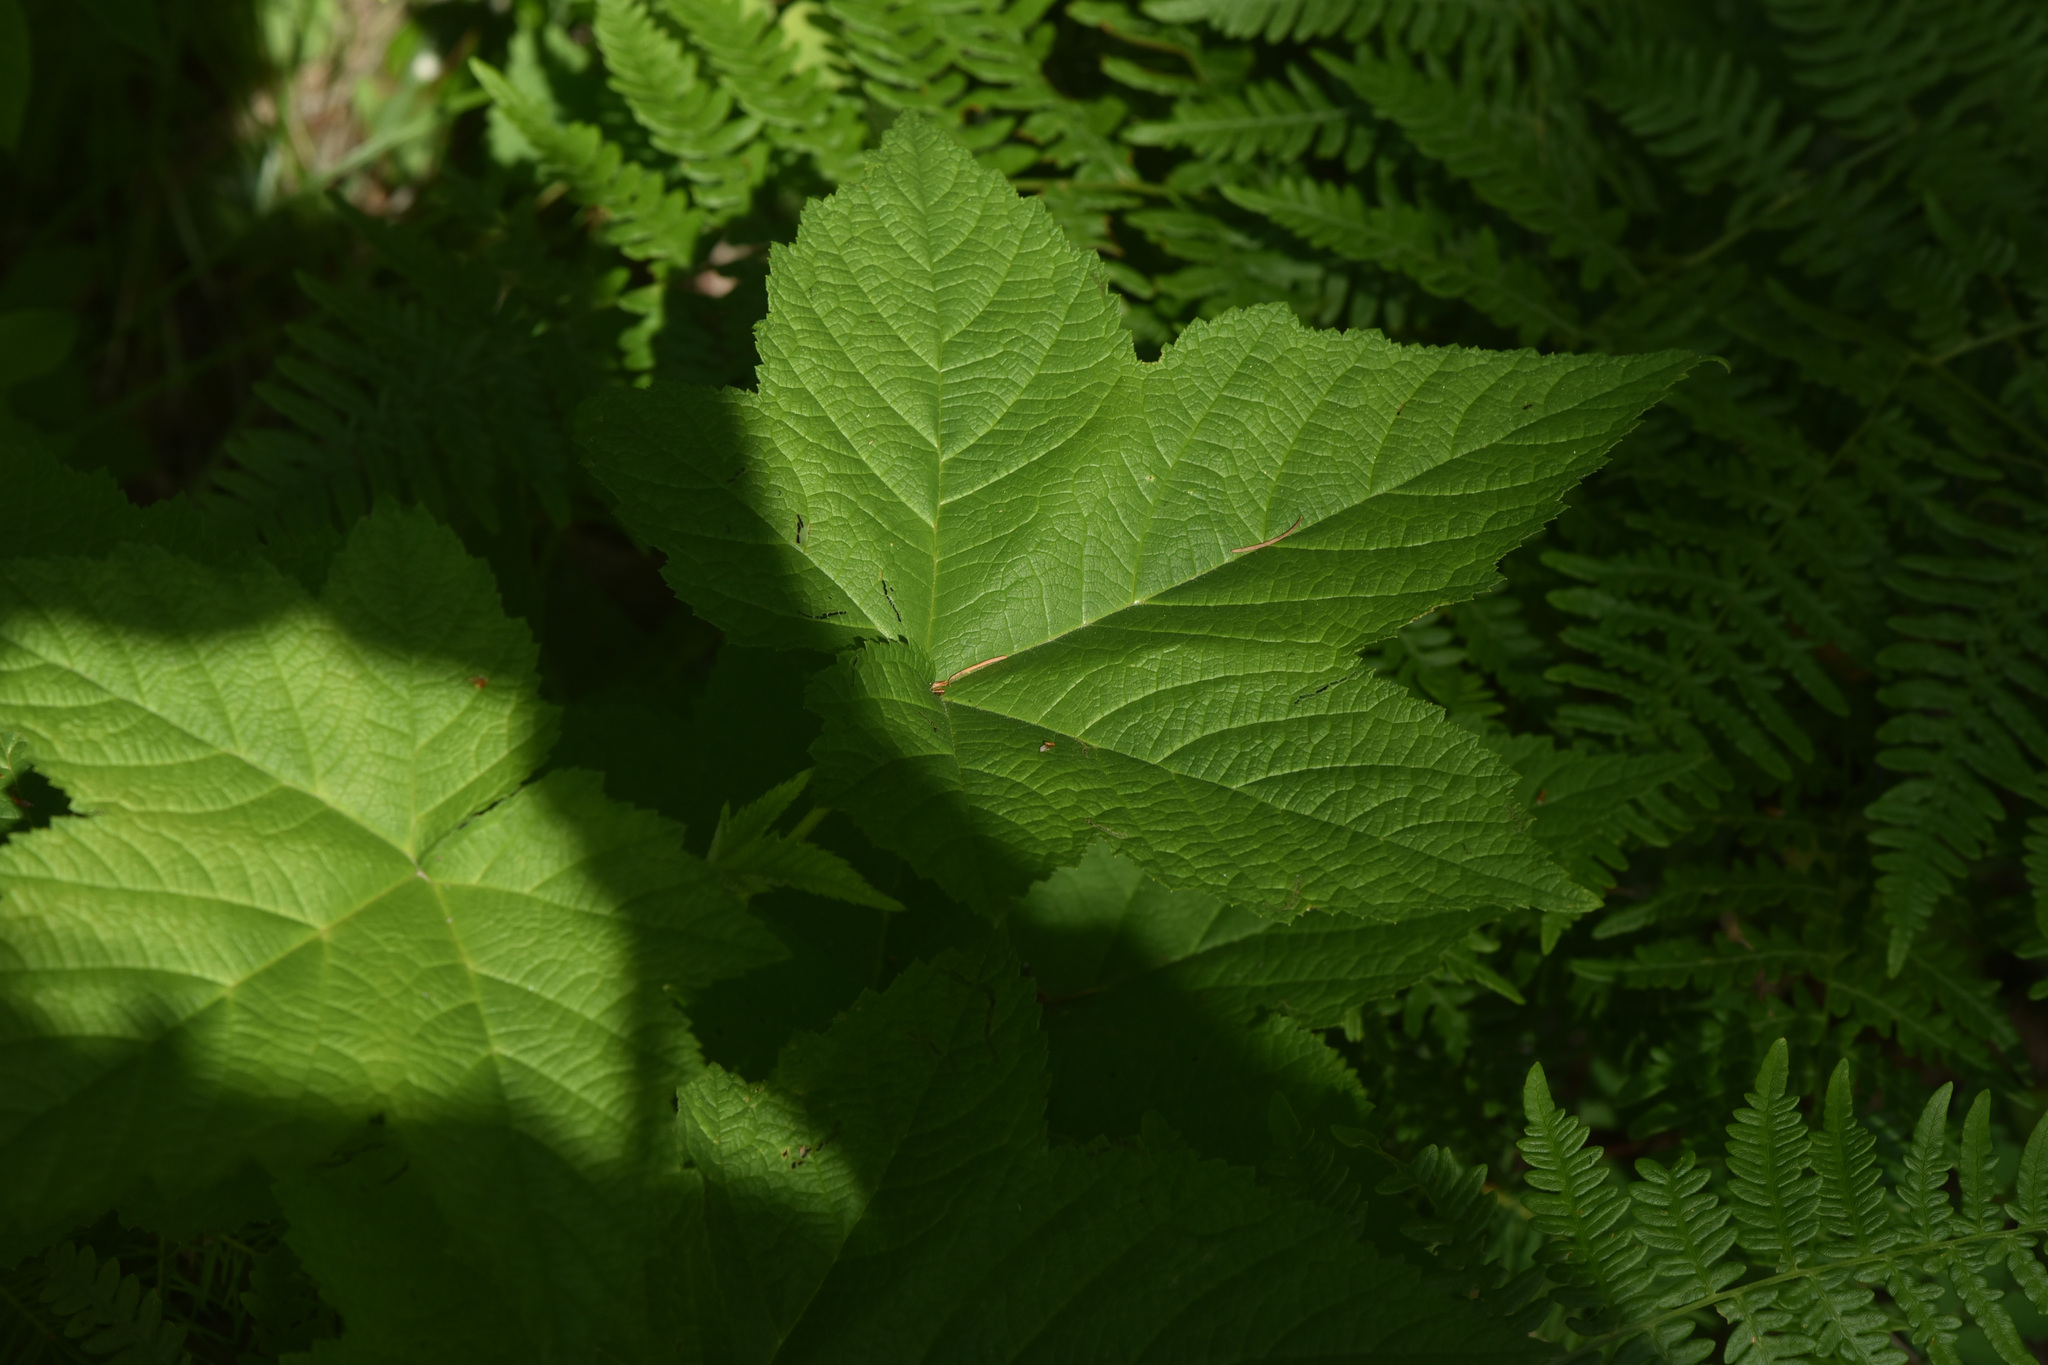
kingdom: Plantae
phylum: Tracheophyta
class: Magnoliopsida
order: Rosales
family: Rosaceae
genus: Rubus
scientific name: Rubus parviflorus
